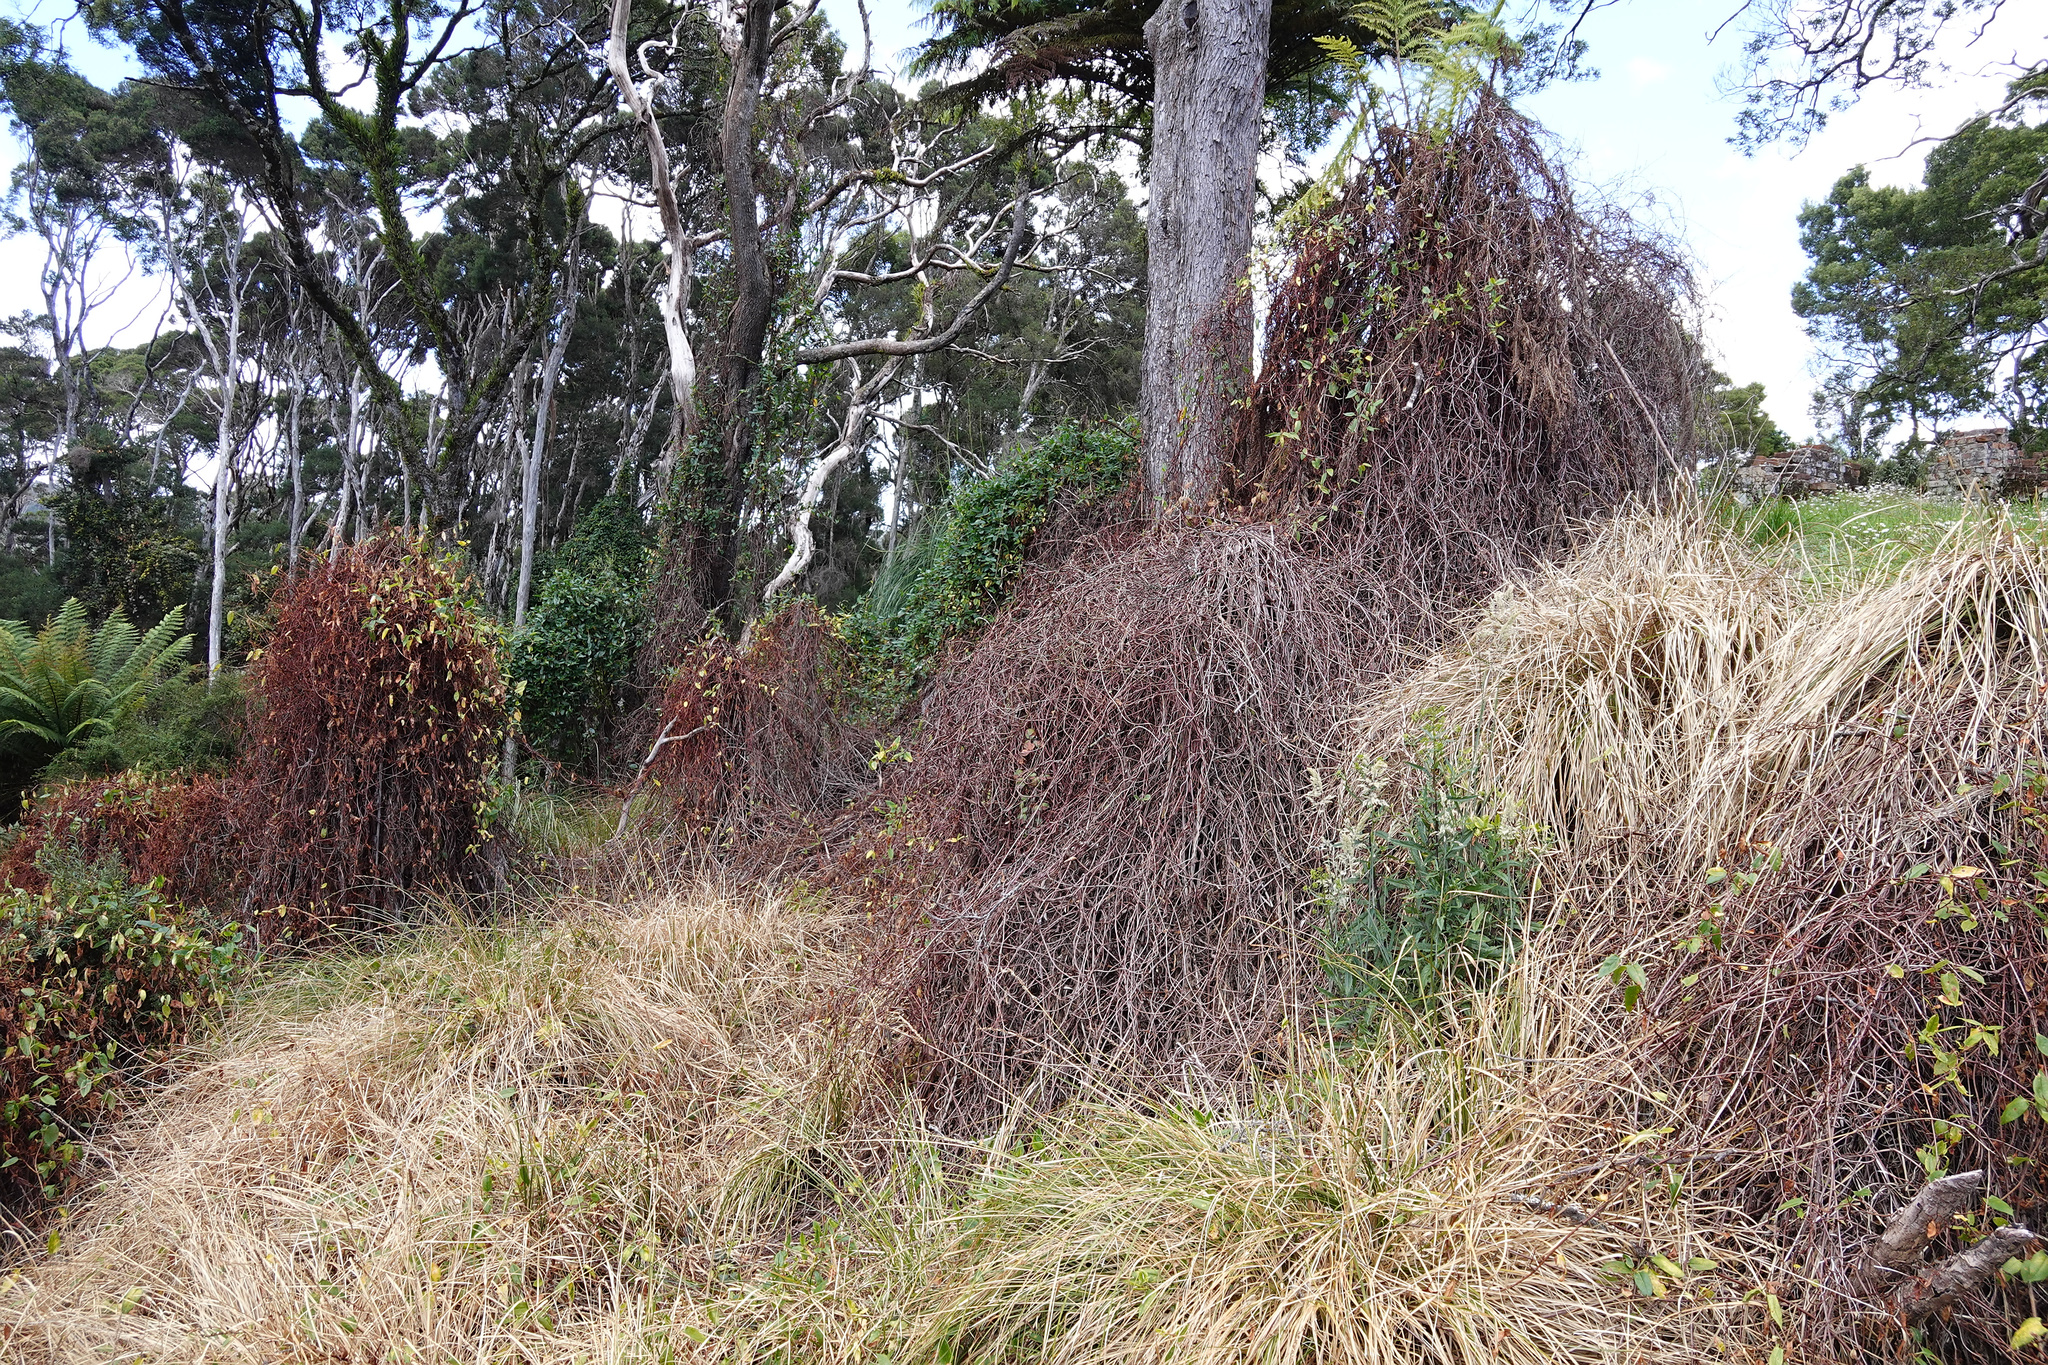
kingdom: Plantae
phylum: Tracheophyta
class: Magnoliopsida
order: Caryophyllales
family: Polygonaceae
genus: Muehlenbeckia
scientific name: Muehlenbeckia gunnii
